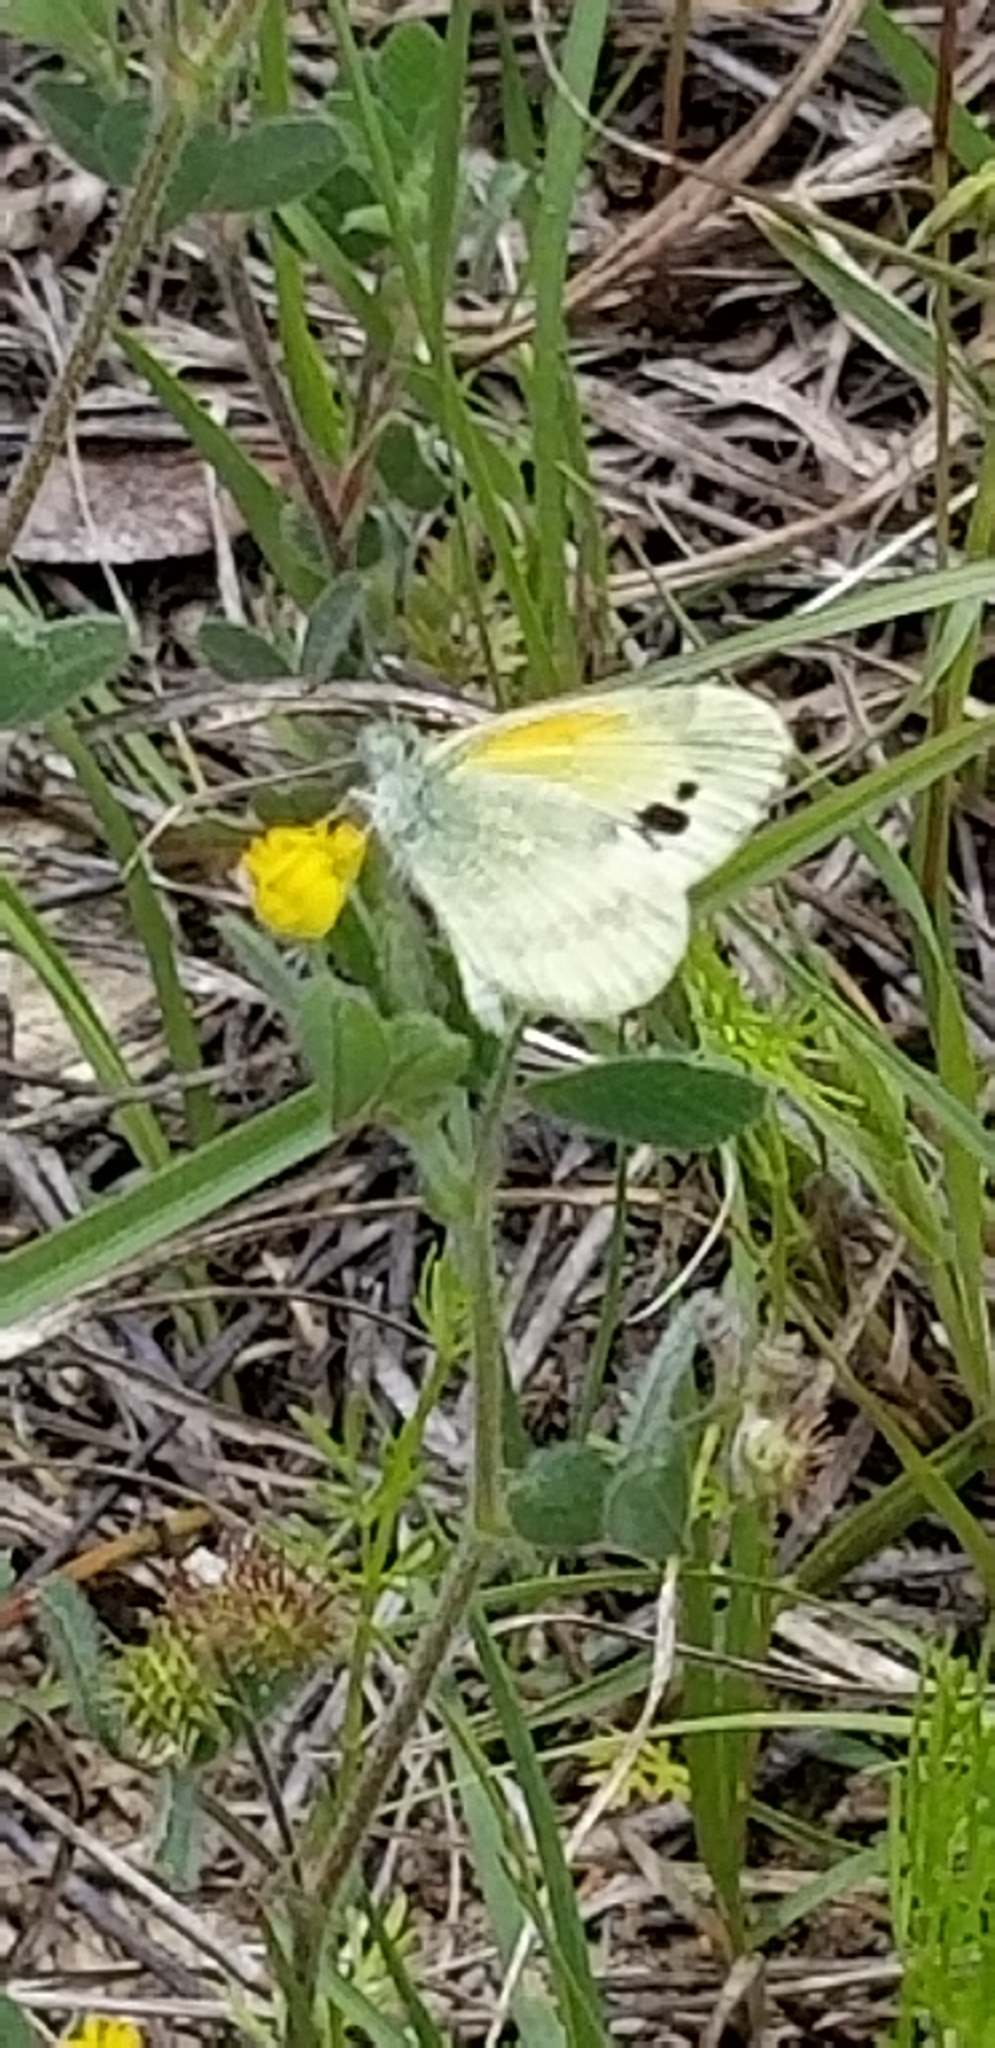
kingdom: Animalia
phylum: Arthropoda
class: Insecta
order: Lepidoptera
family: Pieridae
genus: Nathalis
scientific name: Nathalis iole
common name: Dainty sulphur
